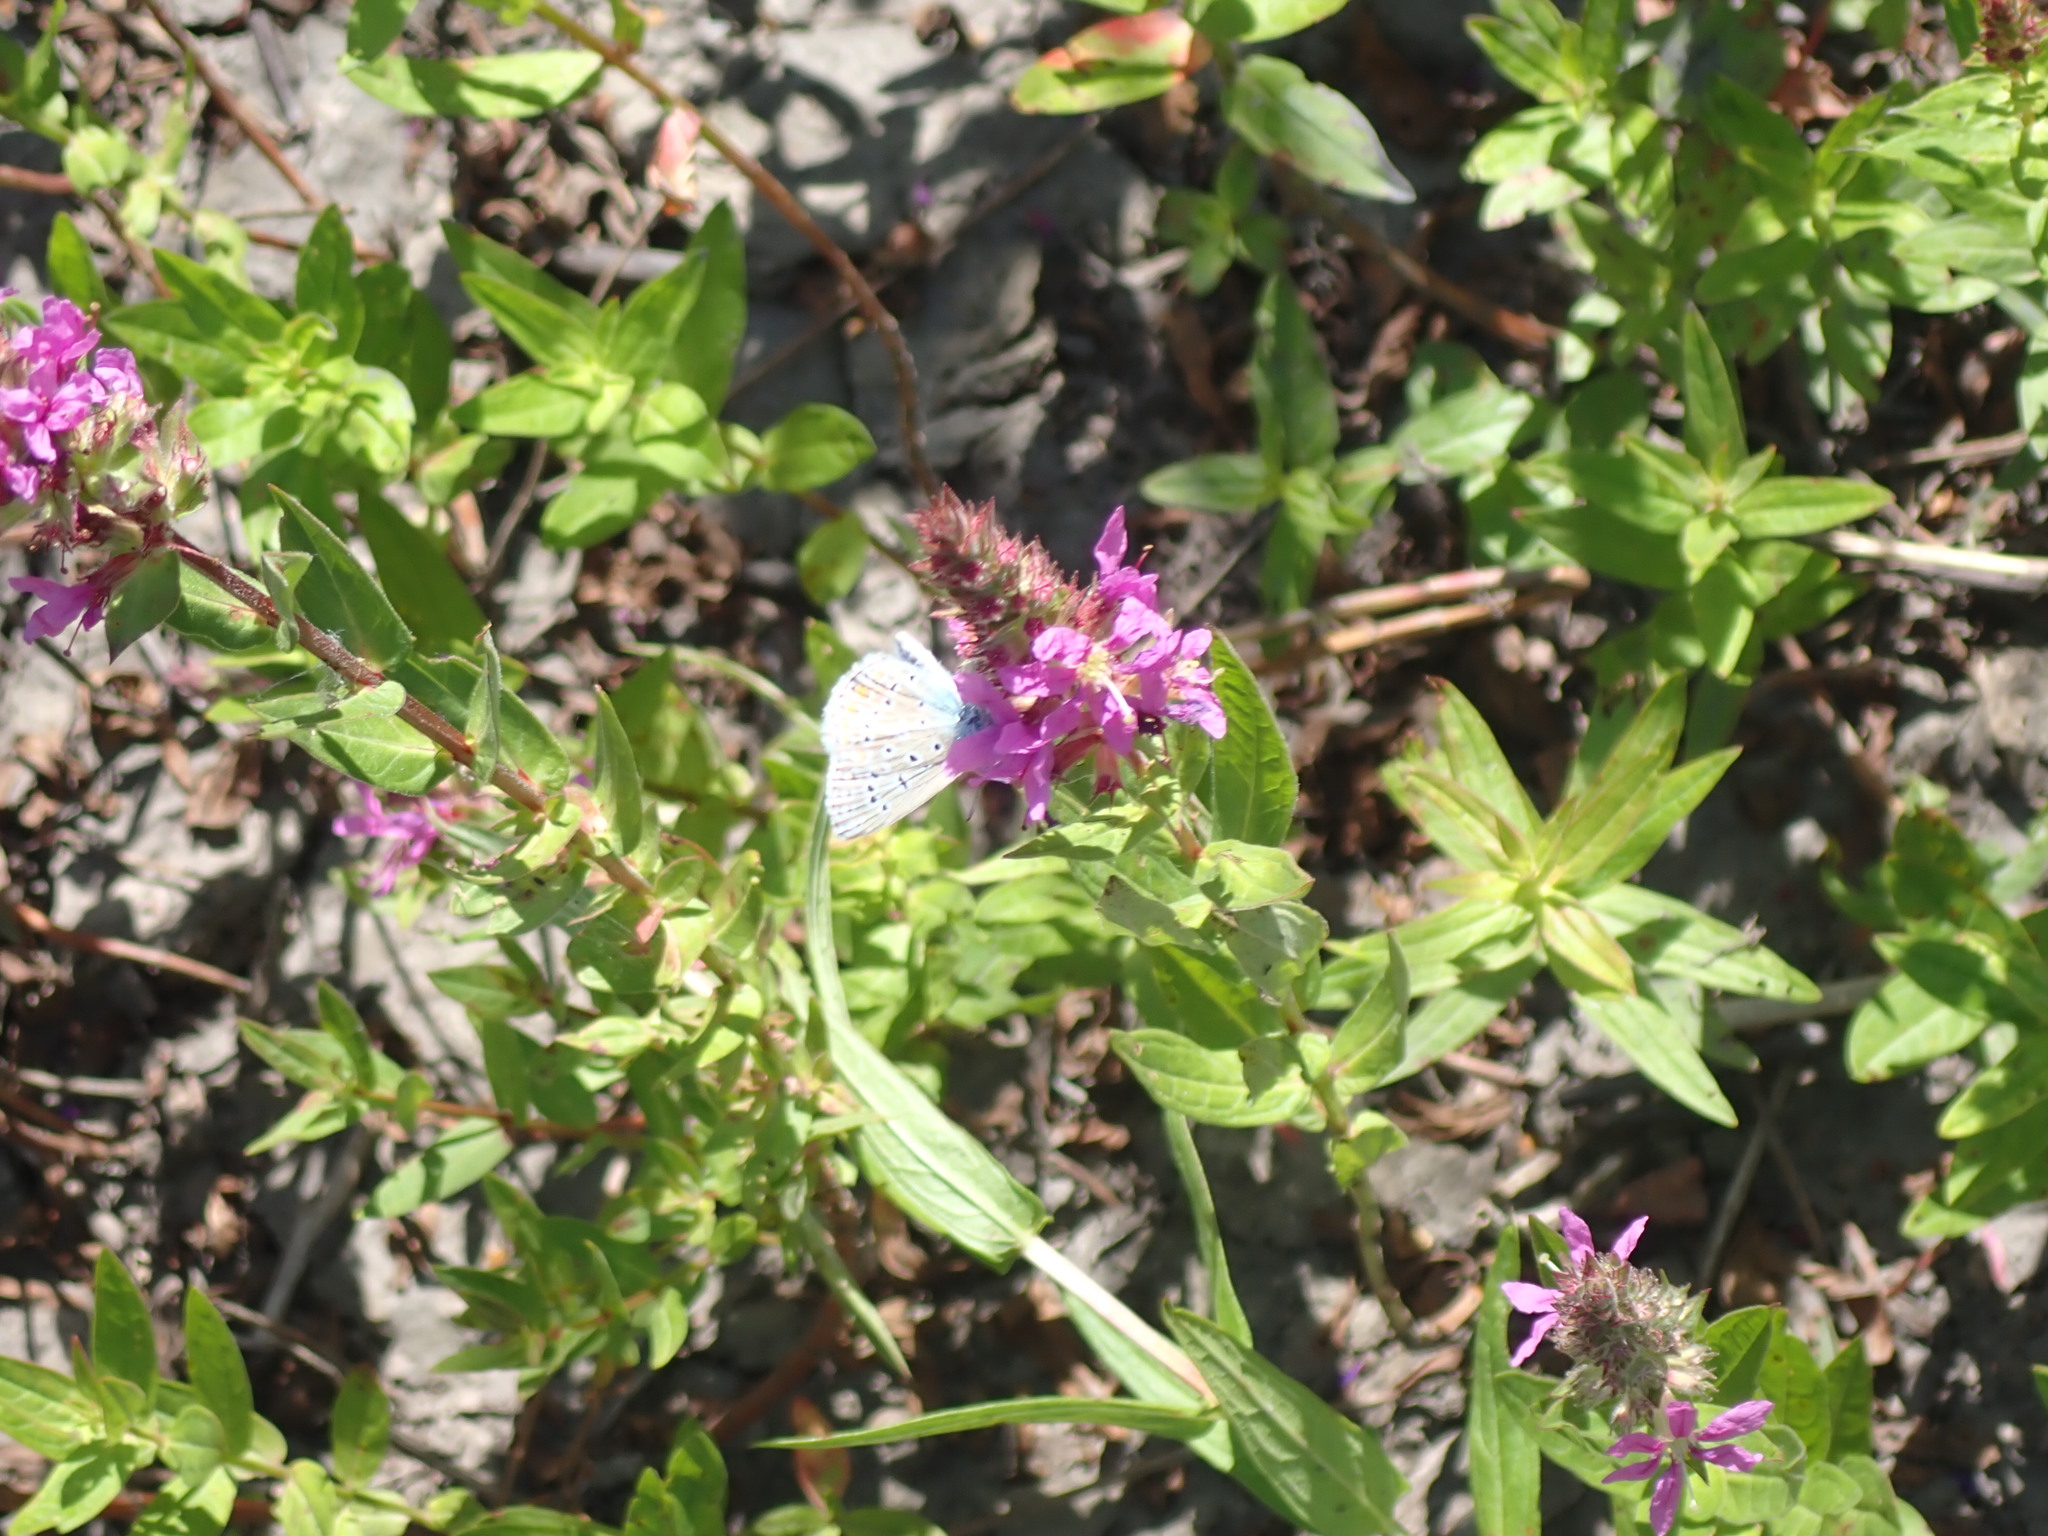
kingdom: Animalia
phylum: Arthropoda
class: Insecta
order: Lepidoptera
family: Lycaenidae
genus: Polyommatus
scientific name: Polyommatus icarus
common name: Common blue
